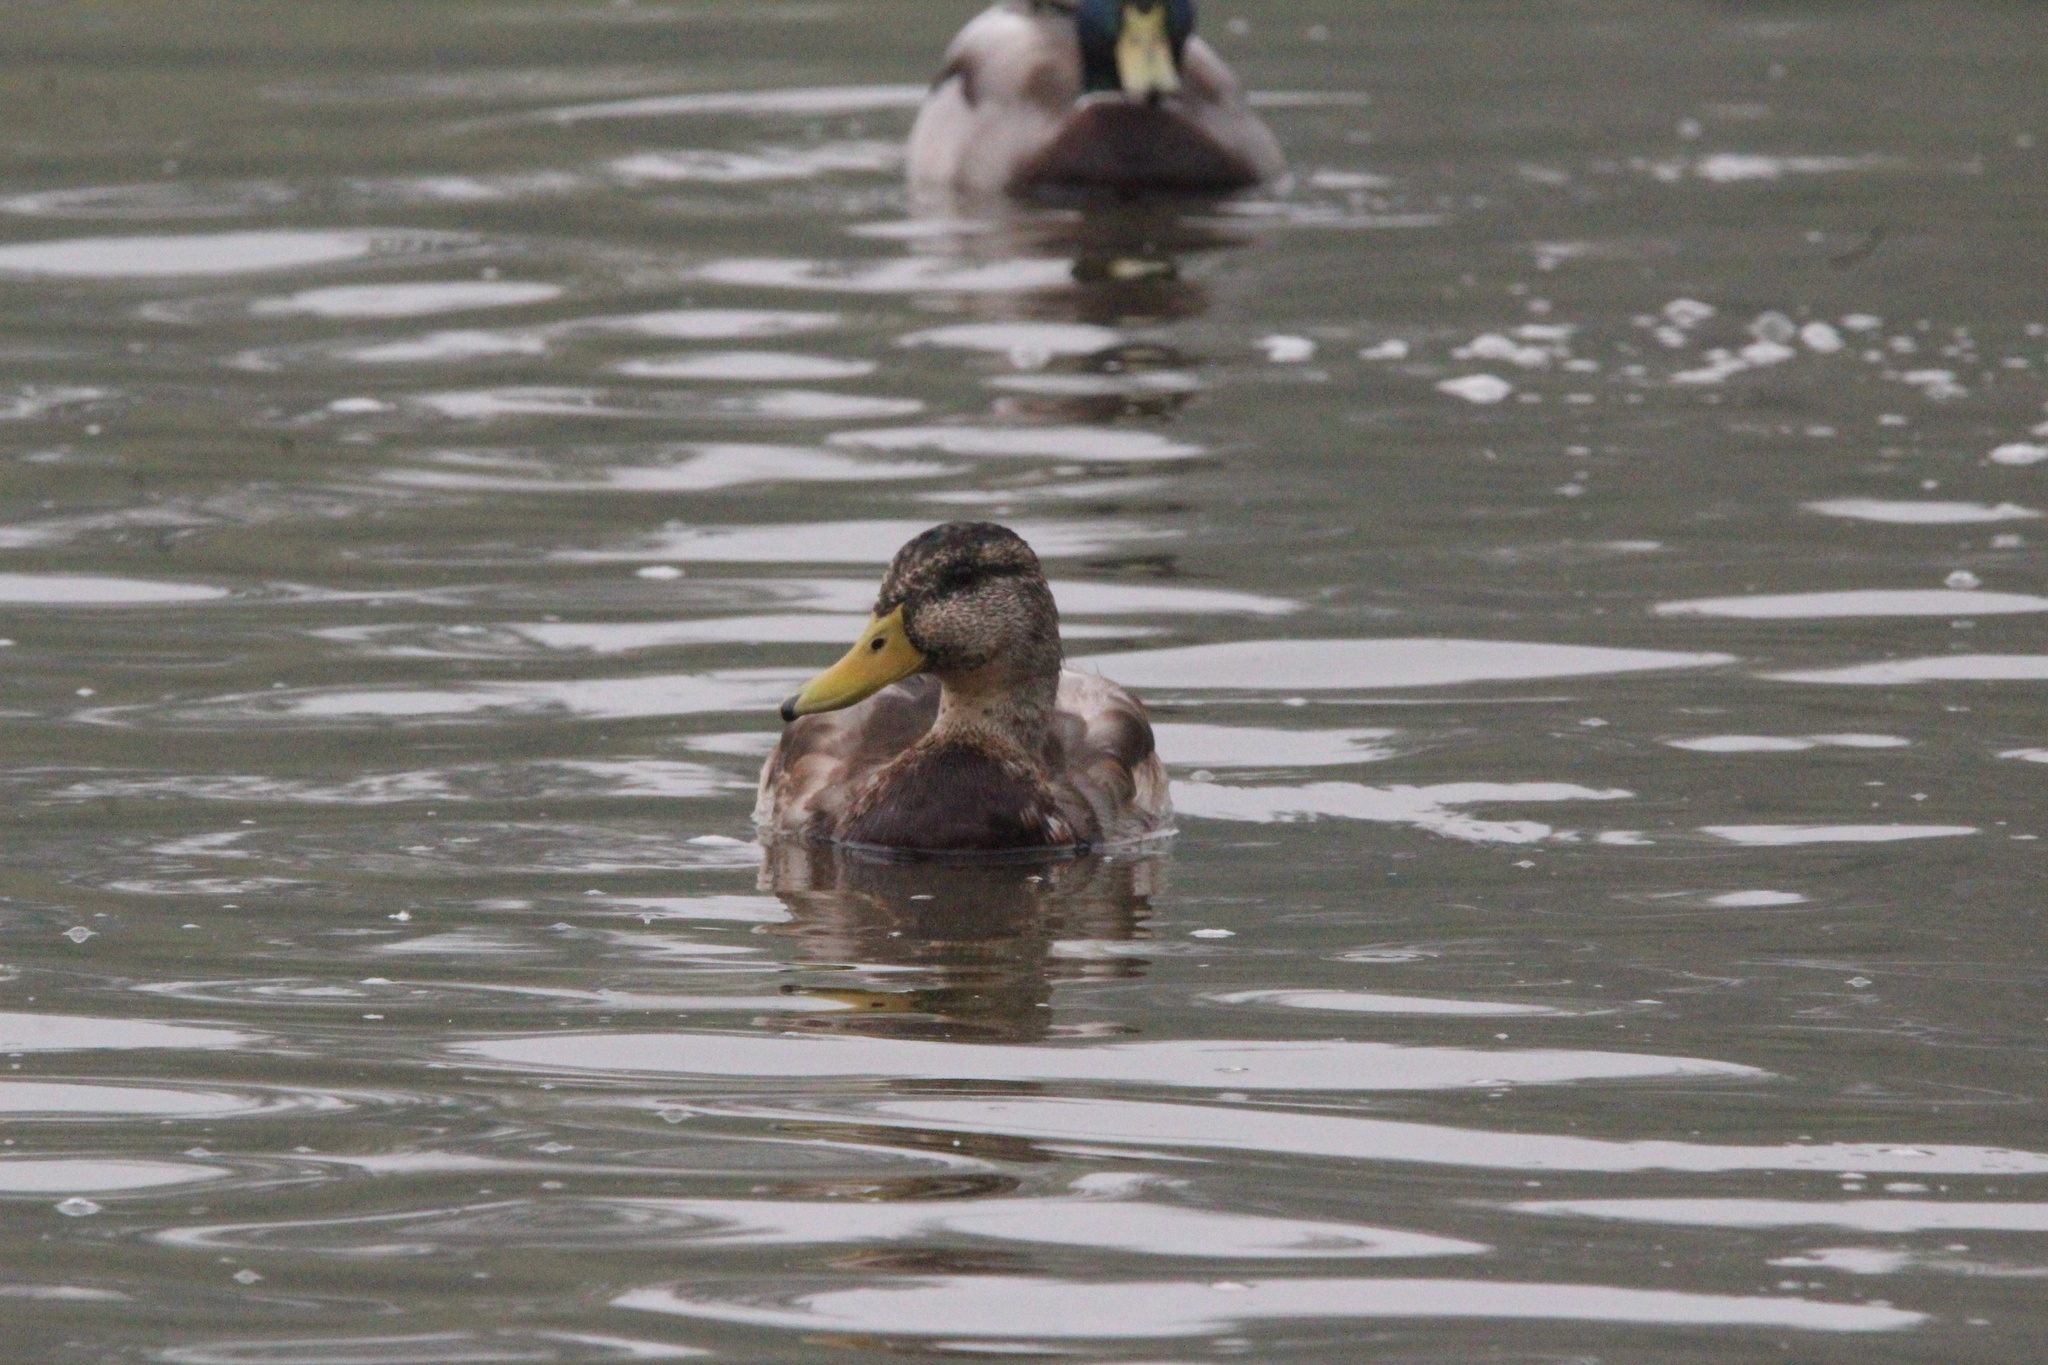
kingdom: Animalia
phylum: Chordata
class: Aves
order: Anseriformes
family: Anatidae
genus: Anas
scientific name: Anas platyrhynchos
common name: Mallard
